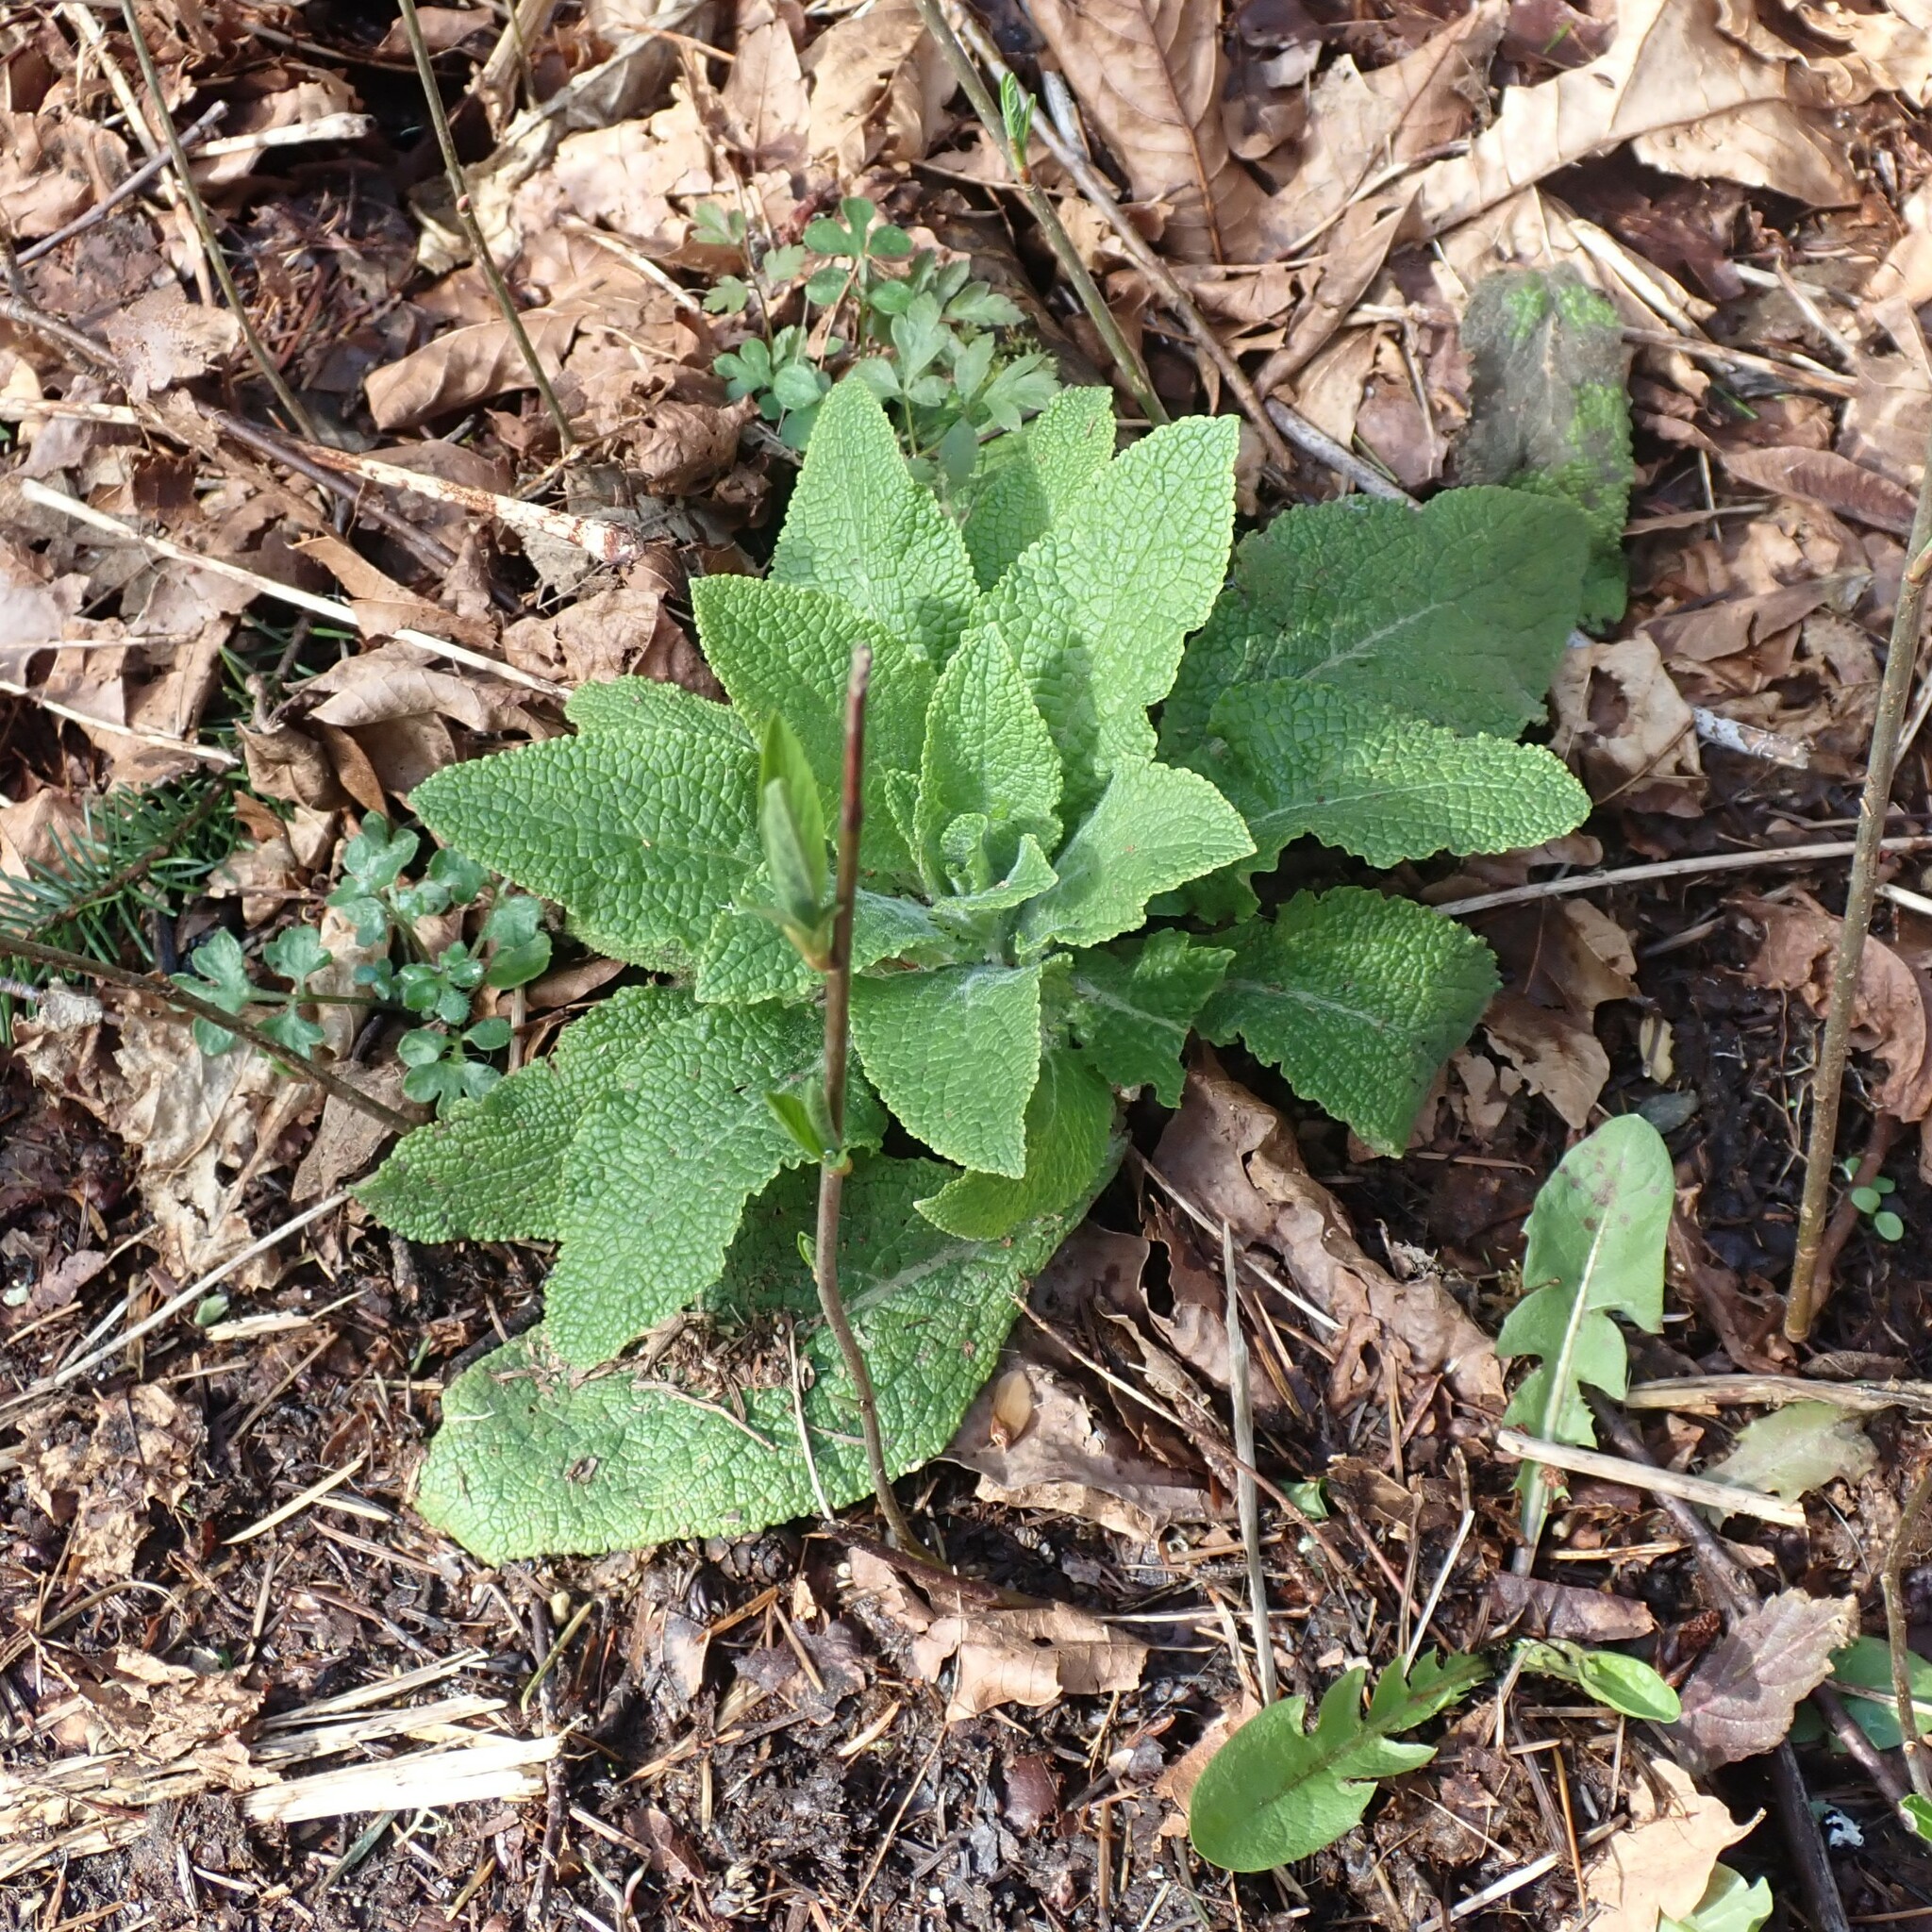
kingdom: Plantae
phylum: Tracheophyta
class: Magnoliopsida
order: Lamiales
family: Plantaginaceae
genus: Digitalis
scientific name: Digitalis purpurea
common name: Foxglove
